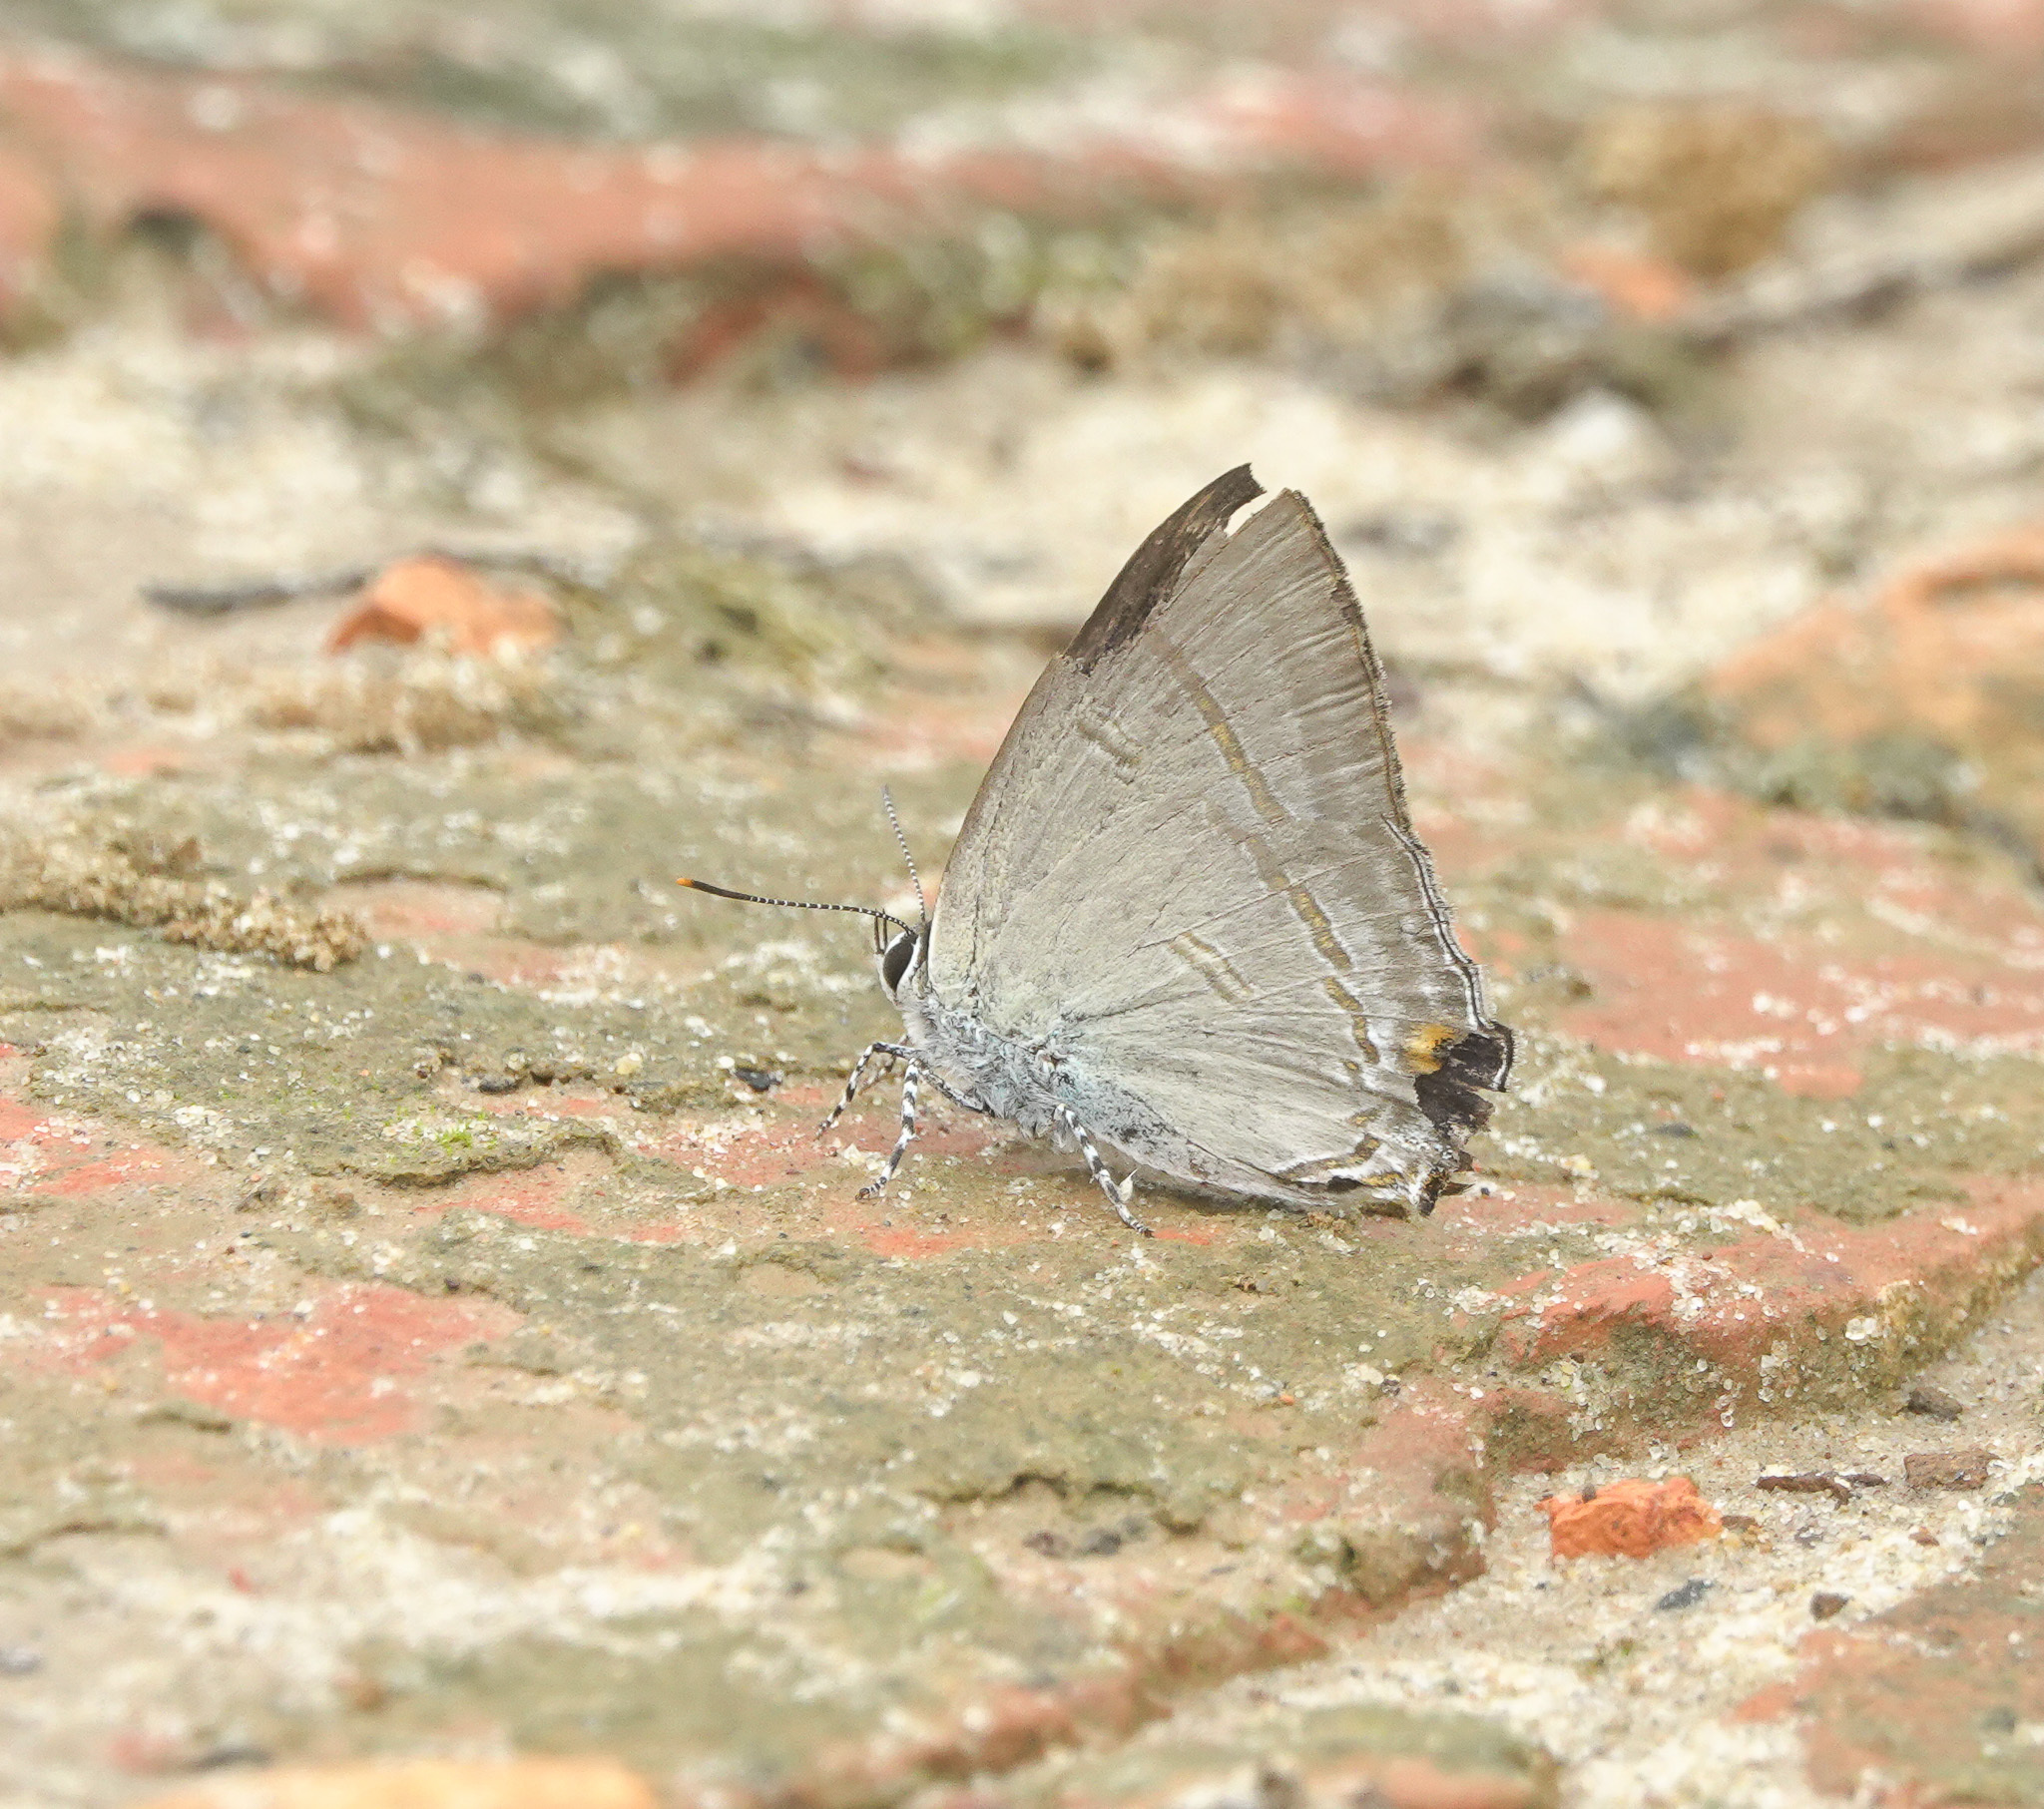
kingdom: Animalia
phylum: Arthropoda
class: Insecta
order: Lepidoptera
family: Lycaenidae
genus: Hypolycaena
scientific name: Hypolycaena erylus
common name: Common tit
